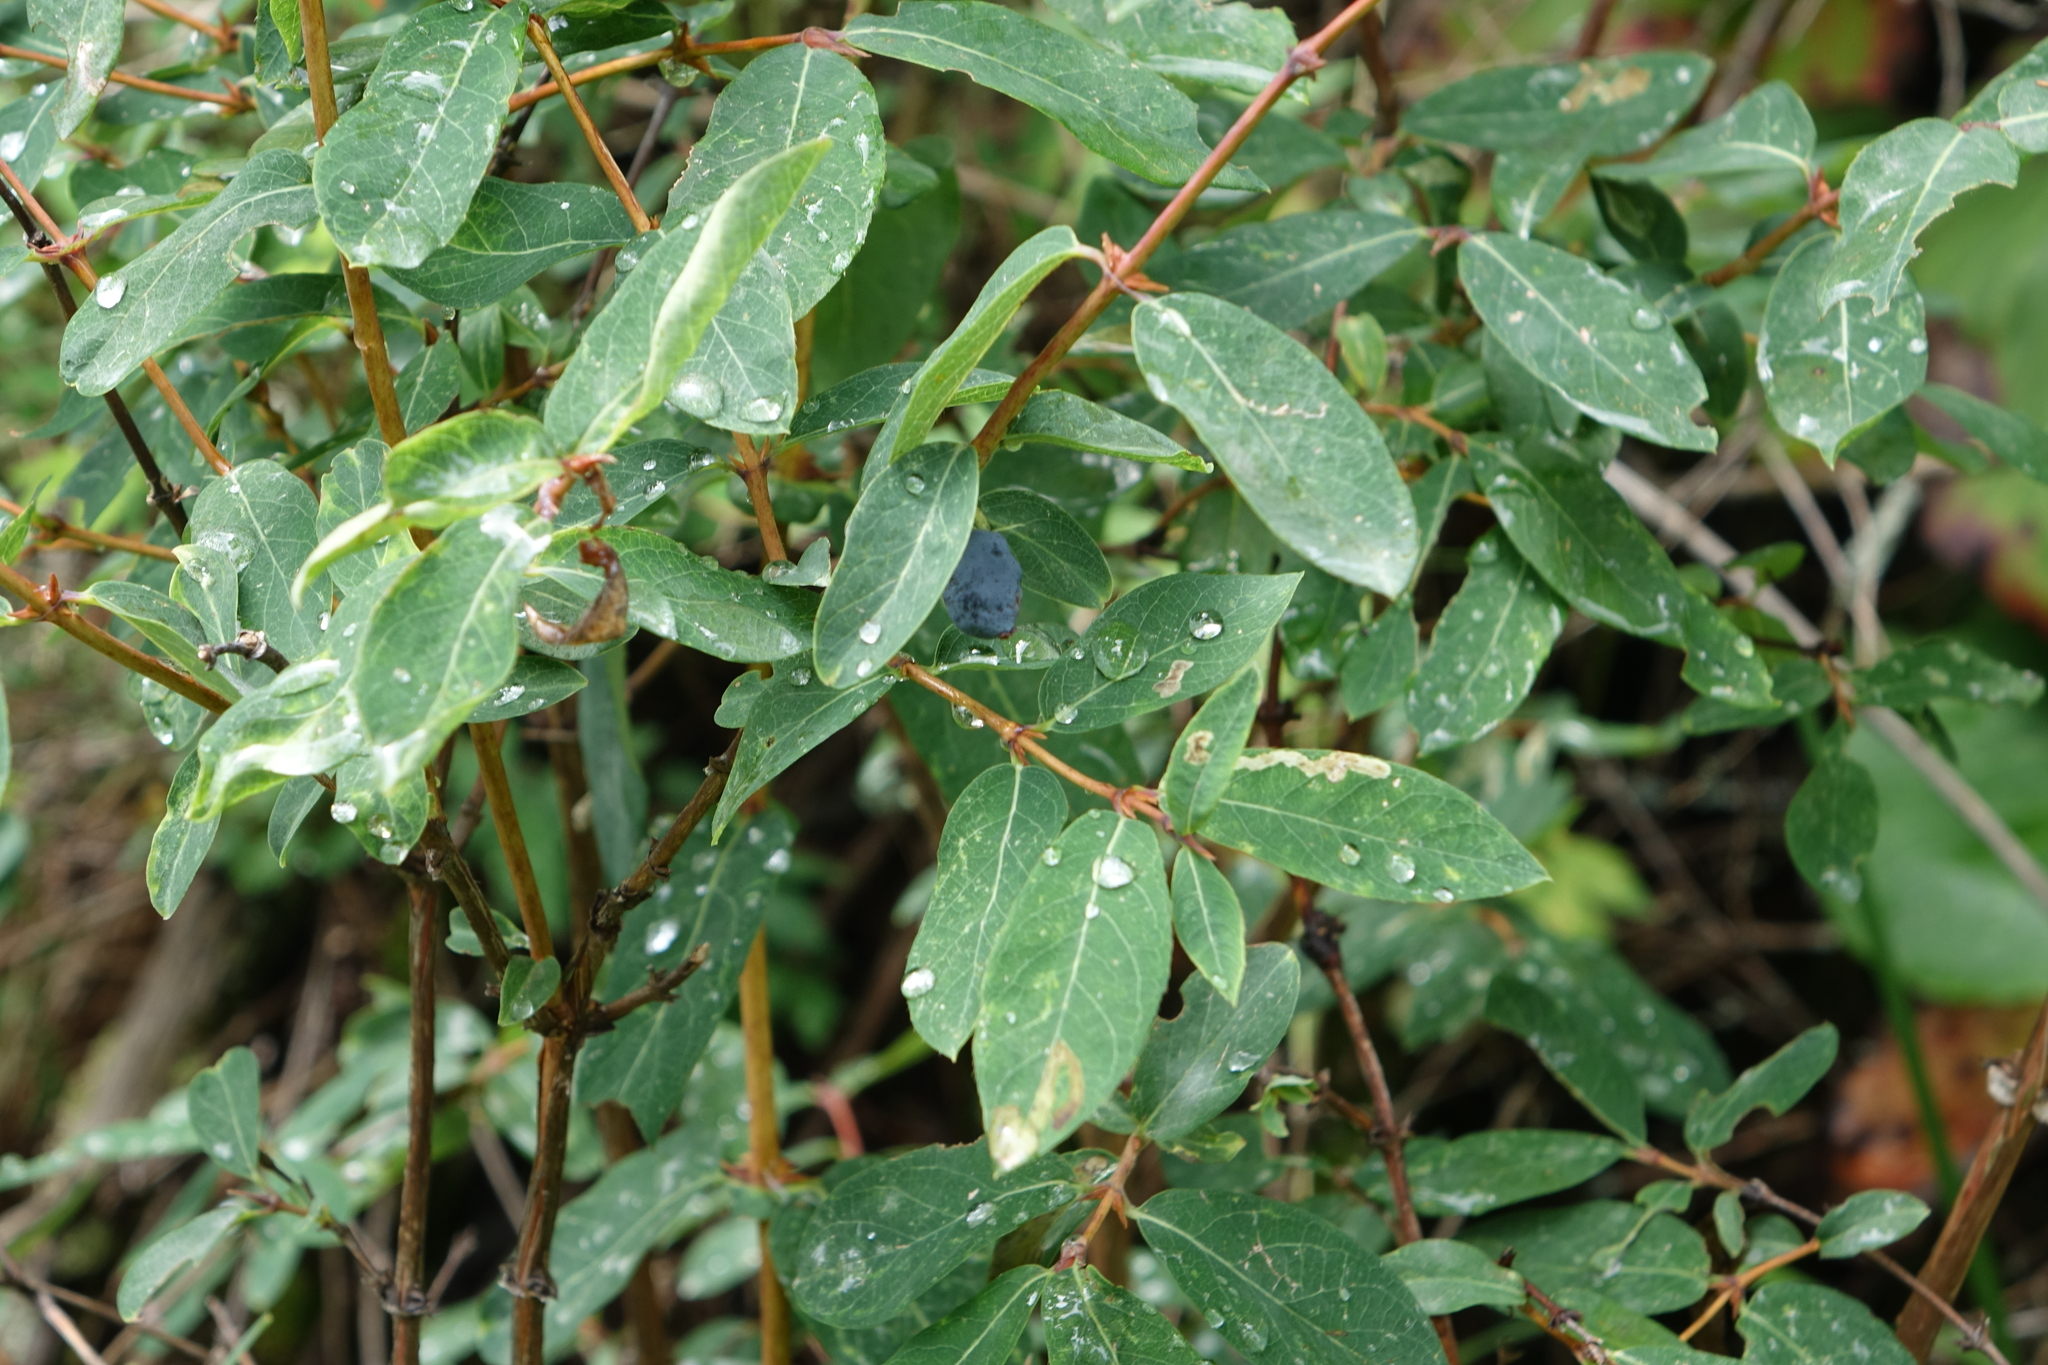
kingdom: Plantae
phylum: Tracheophyta
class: Magnoliopsida
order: Dipsacales
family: Caprifoliaceae
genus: Lonicera
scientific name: Lonicera caerulea
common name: Blue honeysuckle
